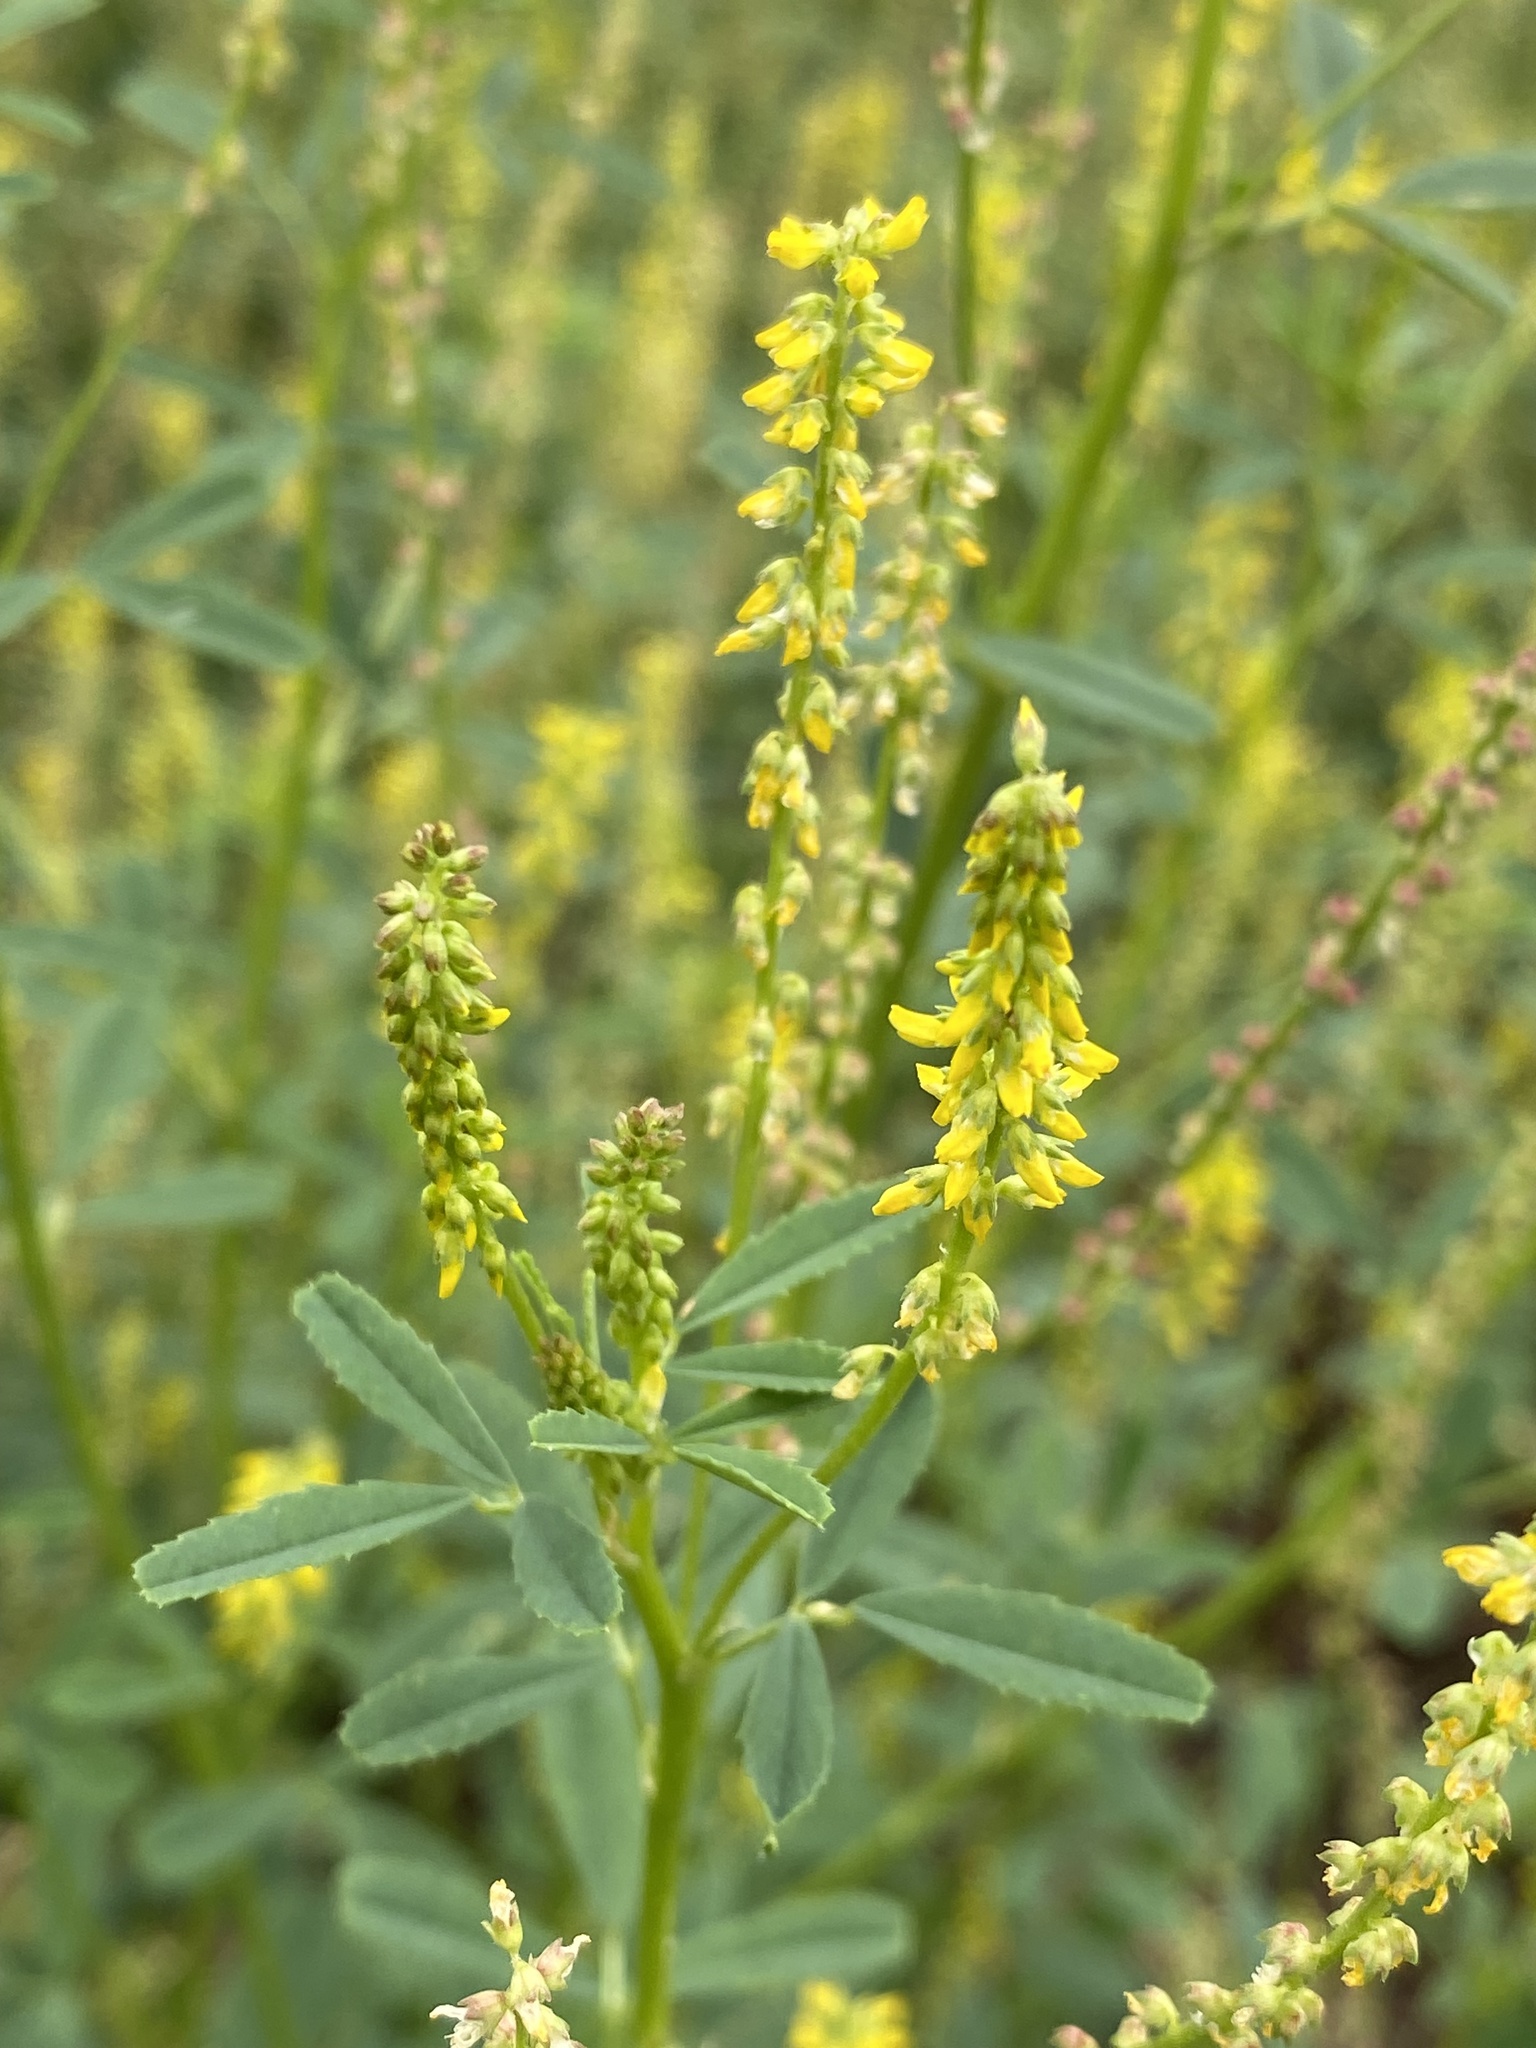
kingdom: Plantae
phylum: Tracheophyta
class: Magnoliopsida
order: Fabales
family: Fabaceae
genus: Melilotus
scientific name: Melilotus indicus
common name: Small melilot
